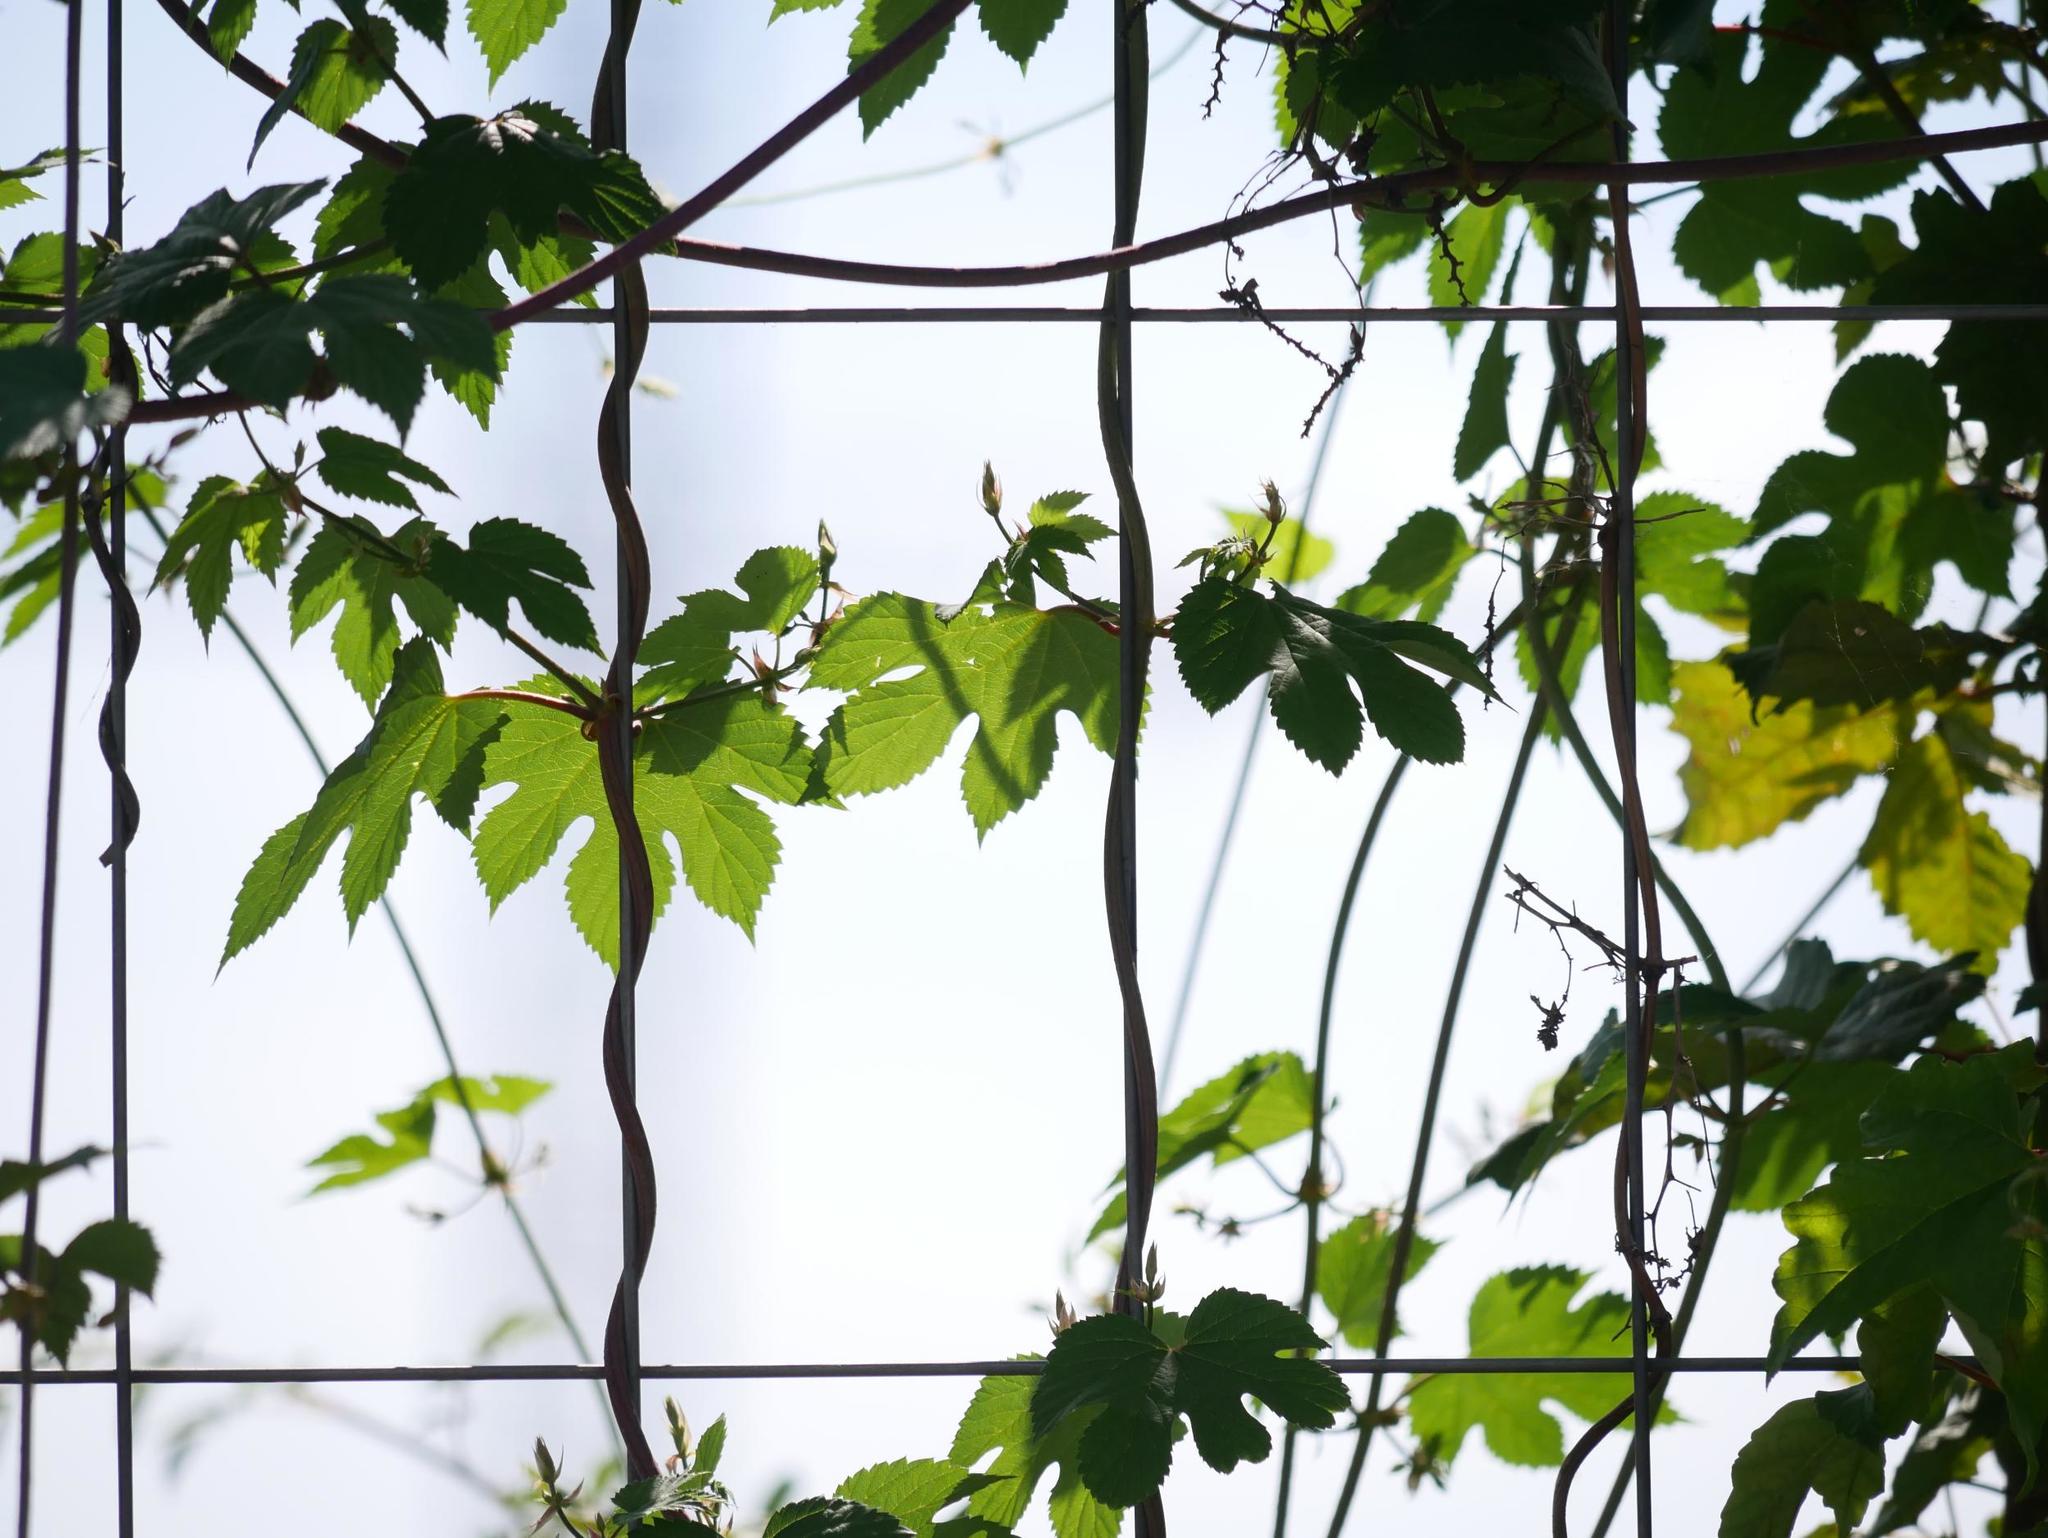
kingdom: Plantae
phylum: Tracheophyta
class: Magnoliopsida
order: Rosales
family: Cannabaceae
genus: Humulus
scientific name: Humulus lupulus
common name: Hop
